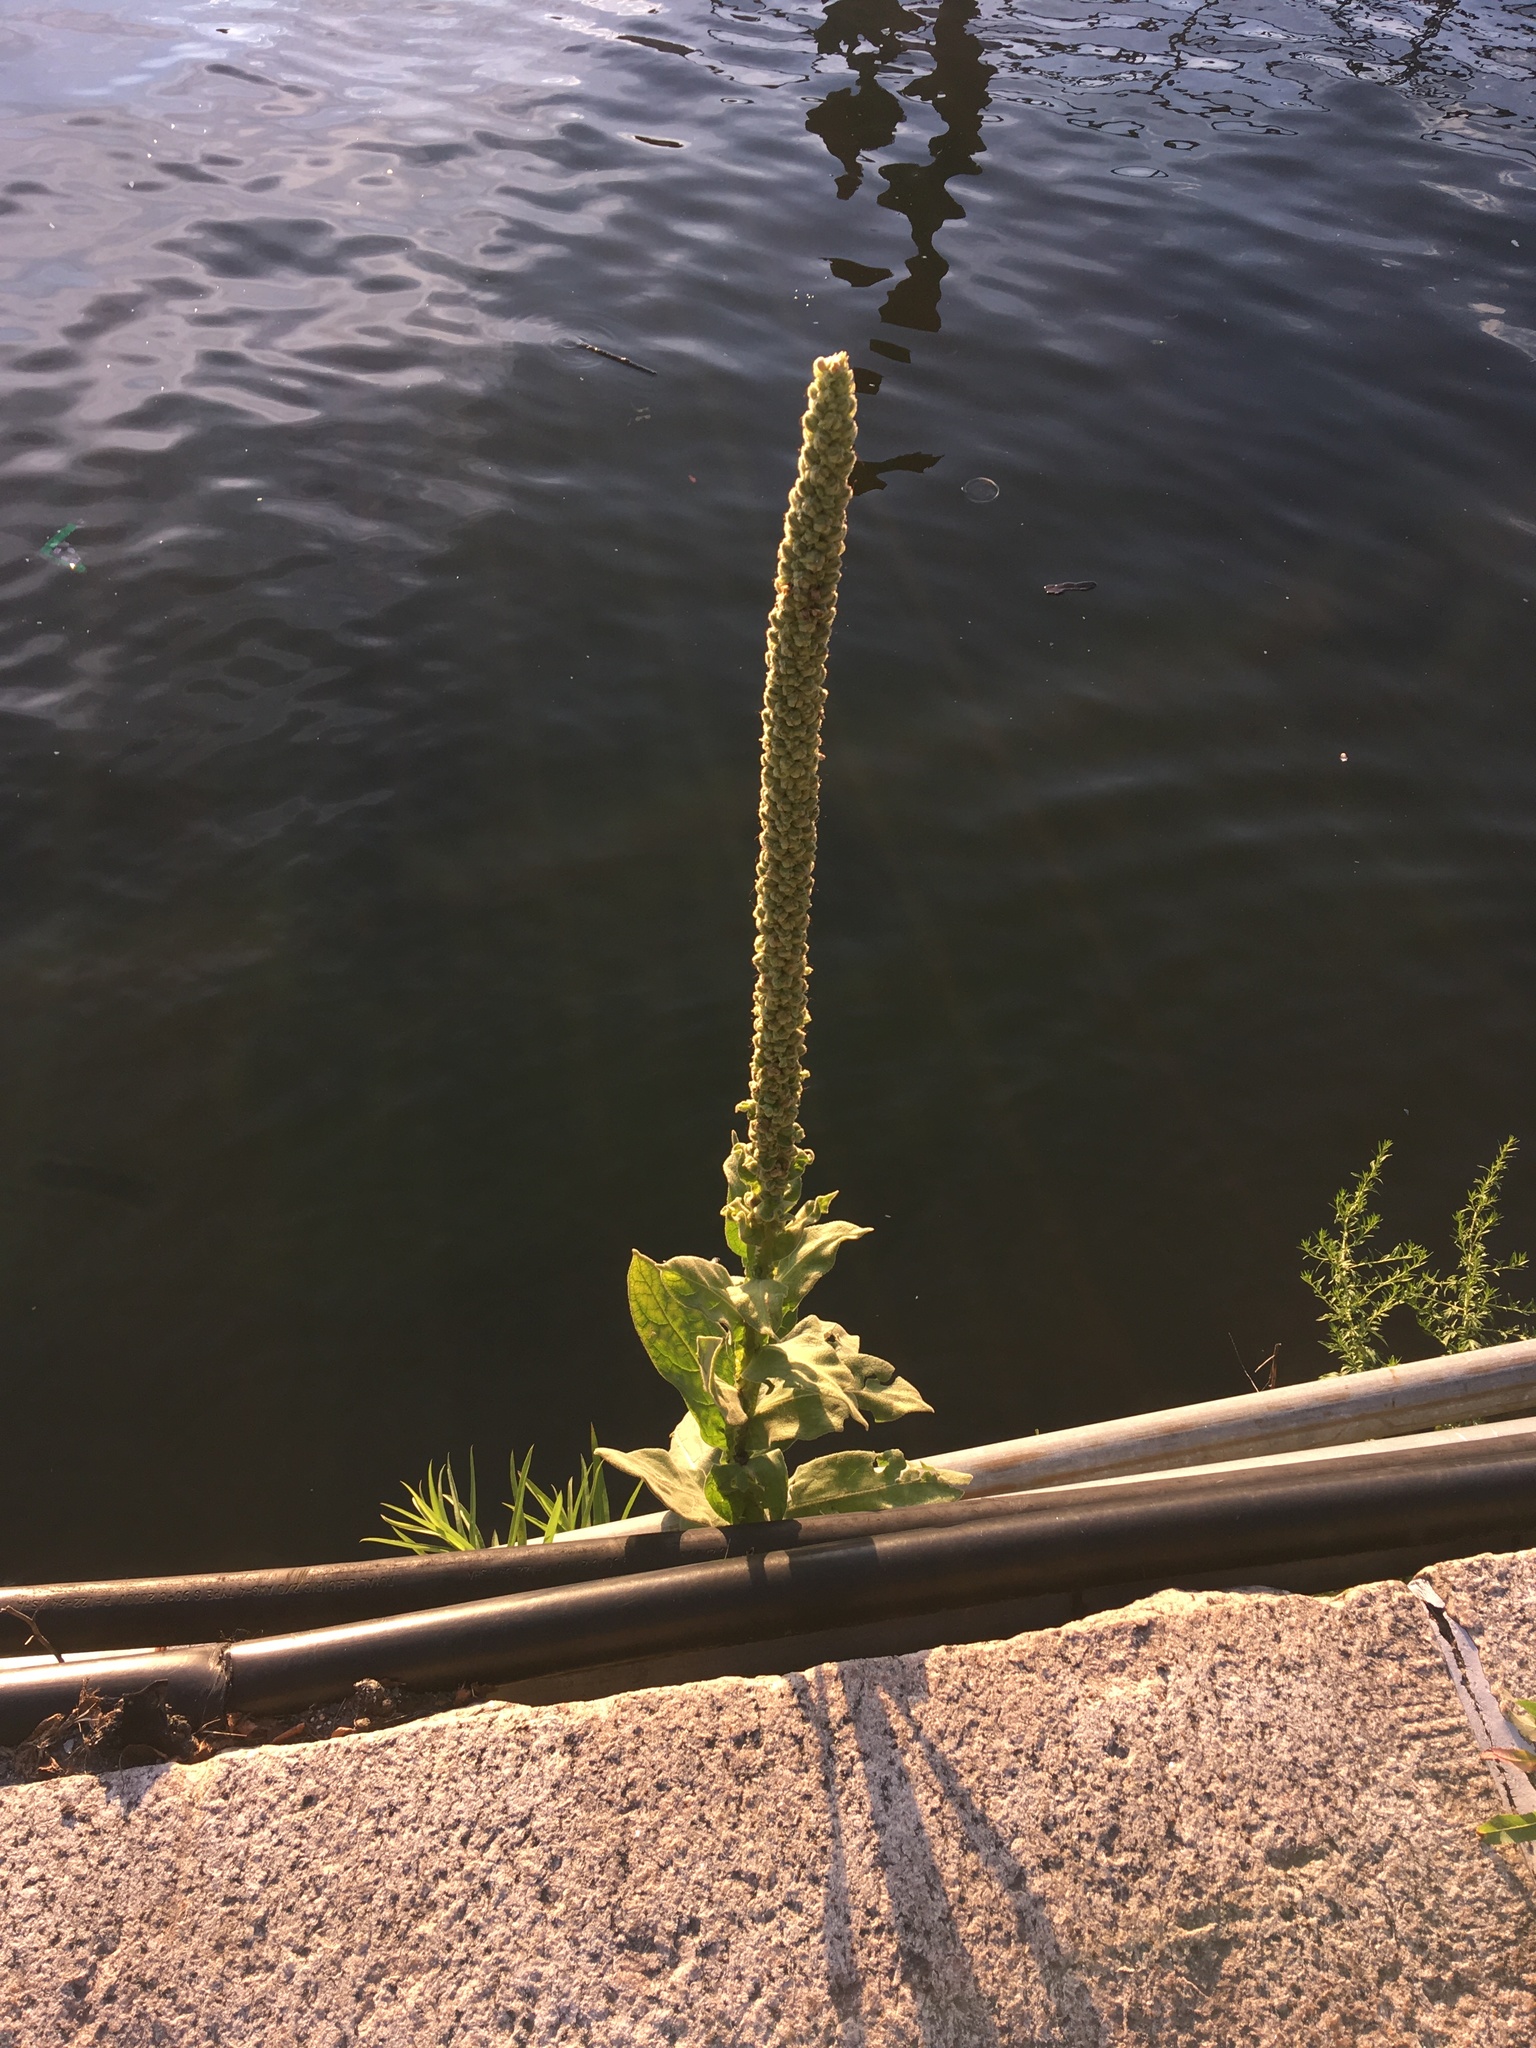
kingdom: Plantae
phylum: Tracheophyta
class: Magnoliopsida
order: Lamiales
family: Scrophulariaceae
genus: Verbascum
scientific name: Verbascum thapsus
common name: Common mullein
